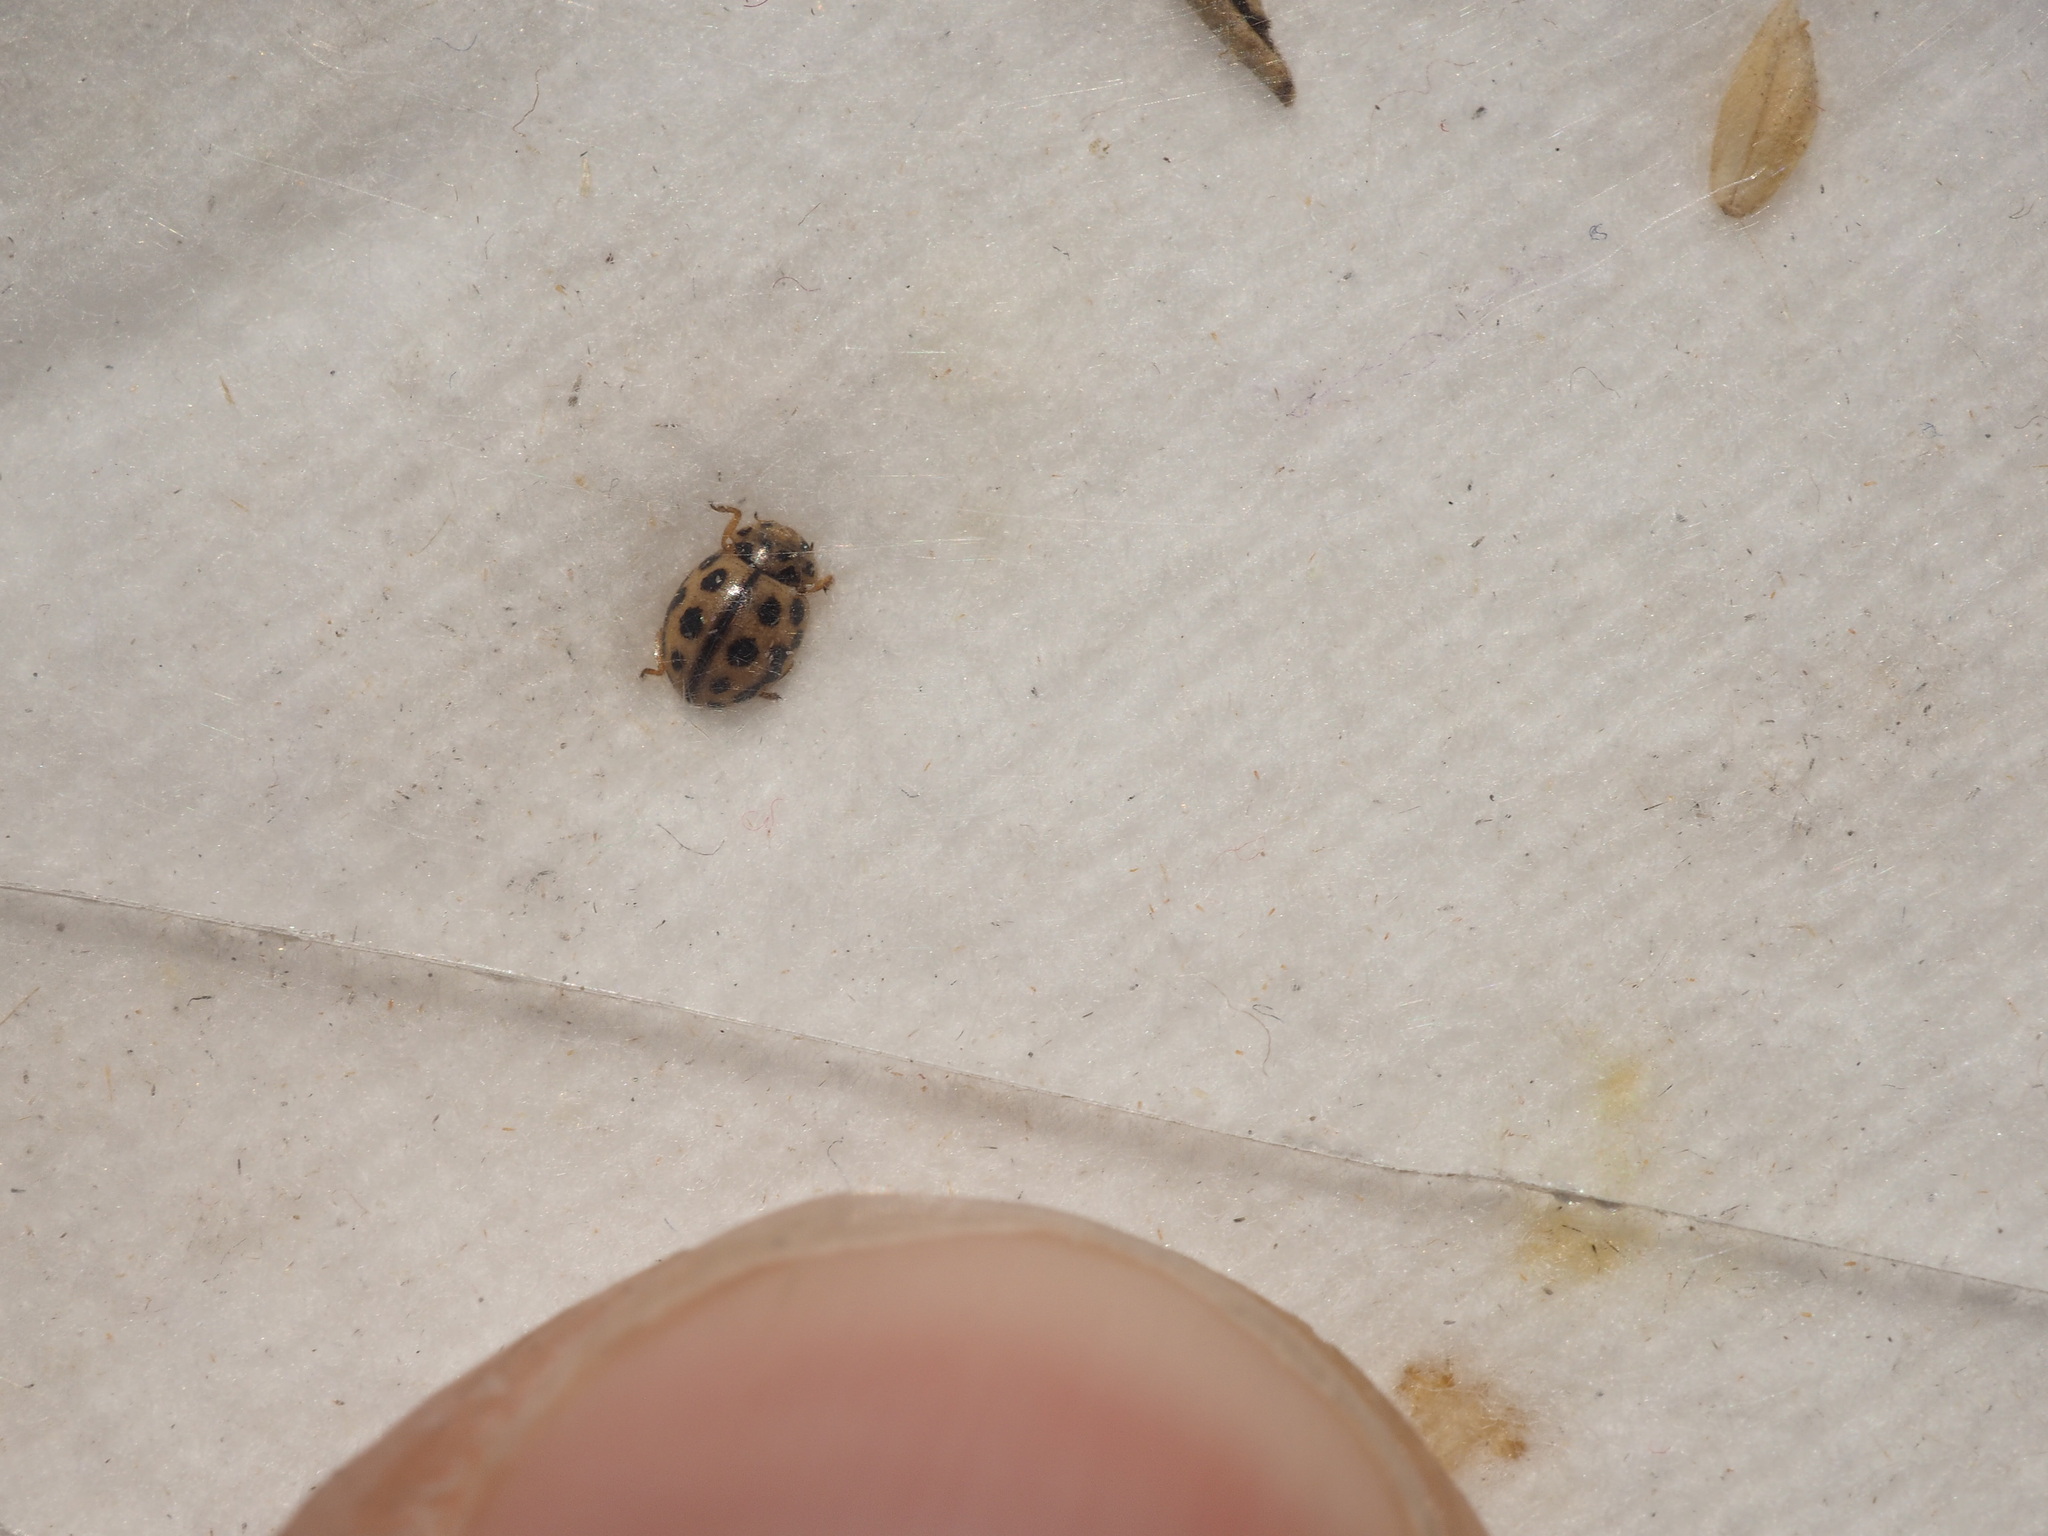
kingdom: Animalia
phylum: Arthropoda
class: Insecta
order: Coleoptera
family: Coccinellidae
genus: Tytthaspis
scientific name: Tytthaspis sedecimpunctata
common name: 16-spot ladybird
